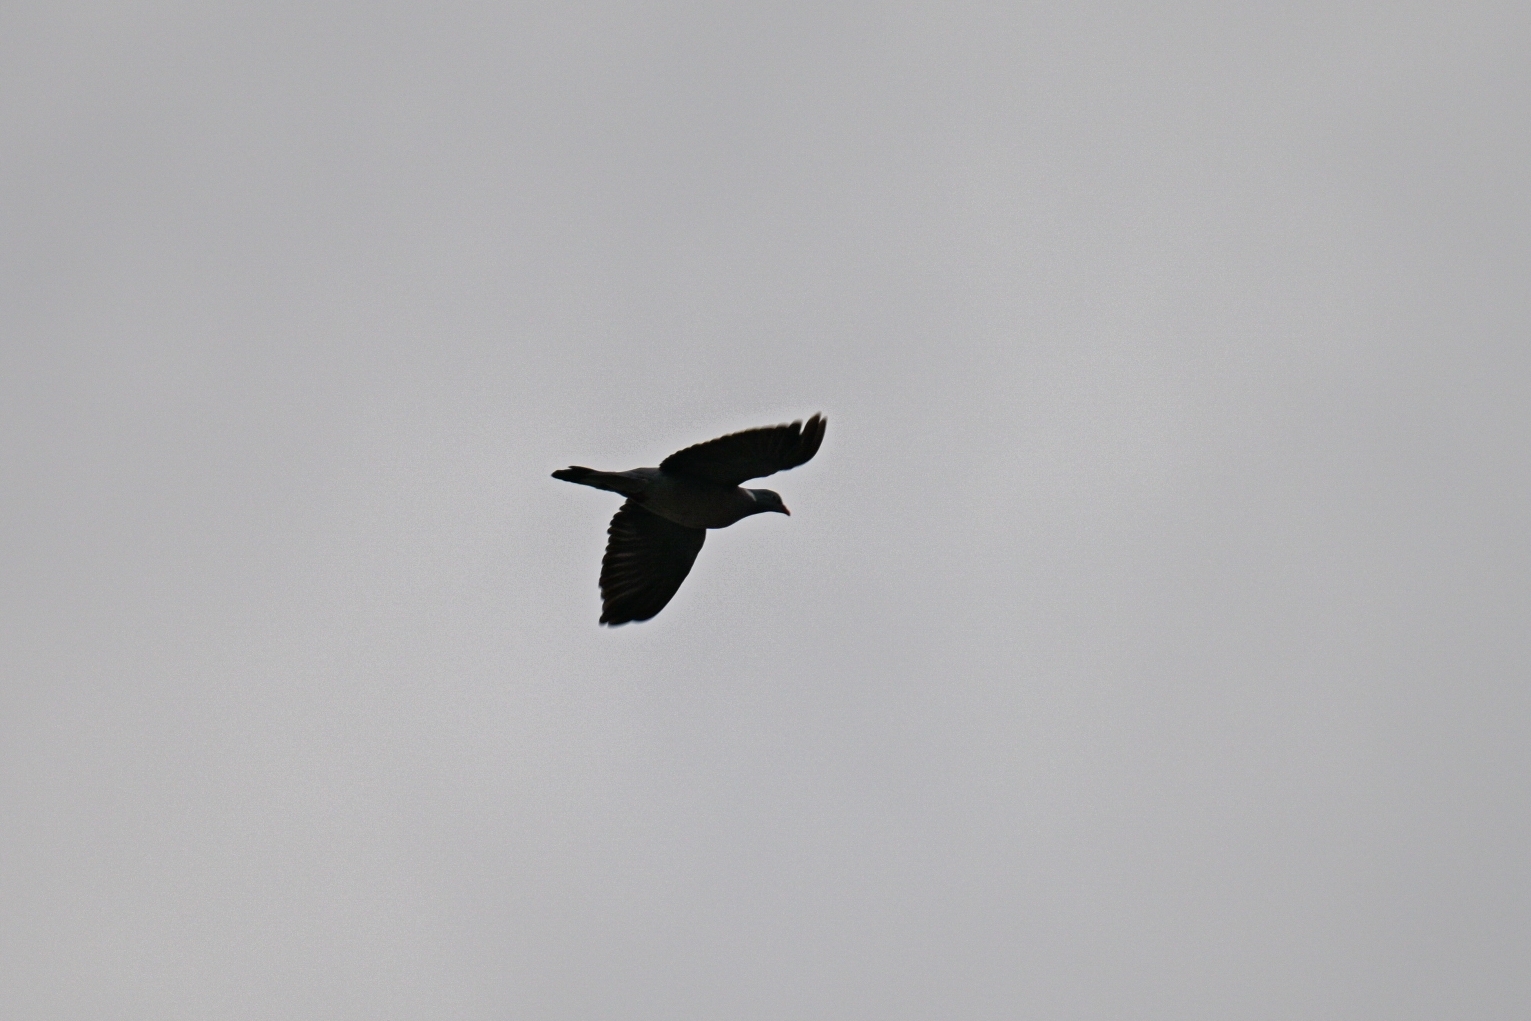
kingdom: Animalia
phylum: Chordata
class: Aves
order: Columbiformes
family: Columbidae
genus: Columba
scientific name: Columba palumbus
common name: Common wood pigeon
